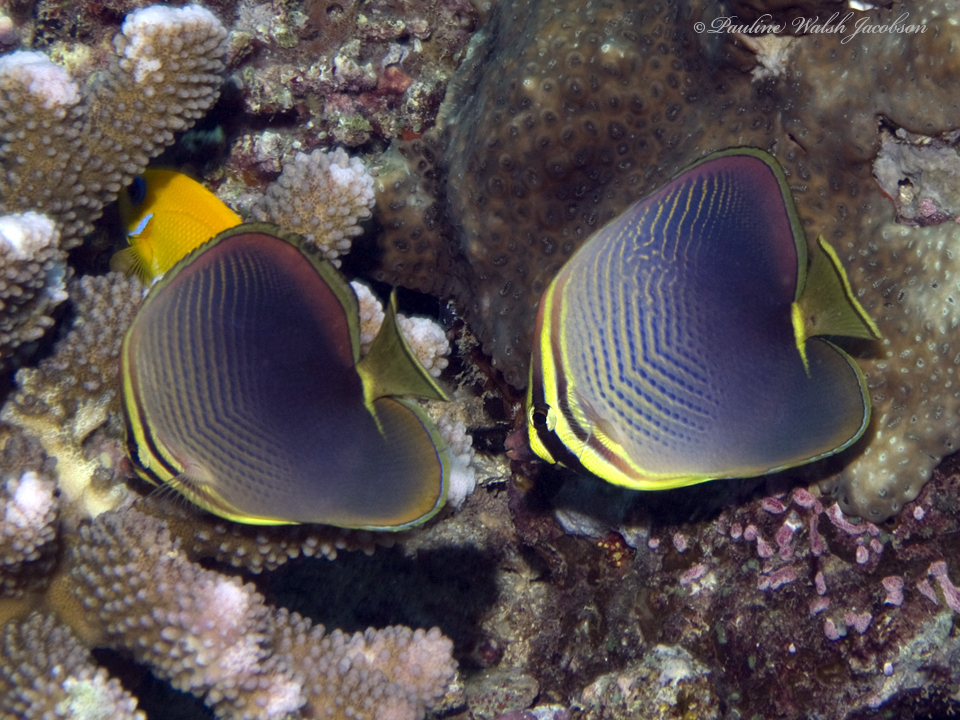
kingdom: Animalia
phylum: Chordata
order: Perciformes
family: Chaetodontidae
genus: Chaetodon
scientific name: Chaetodon baronessa
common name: Triangular butterflyfish
